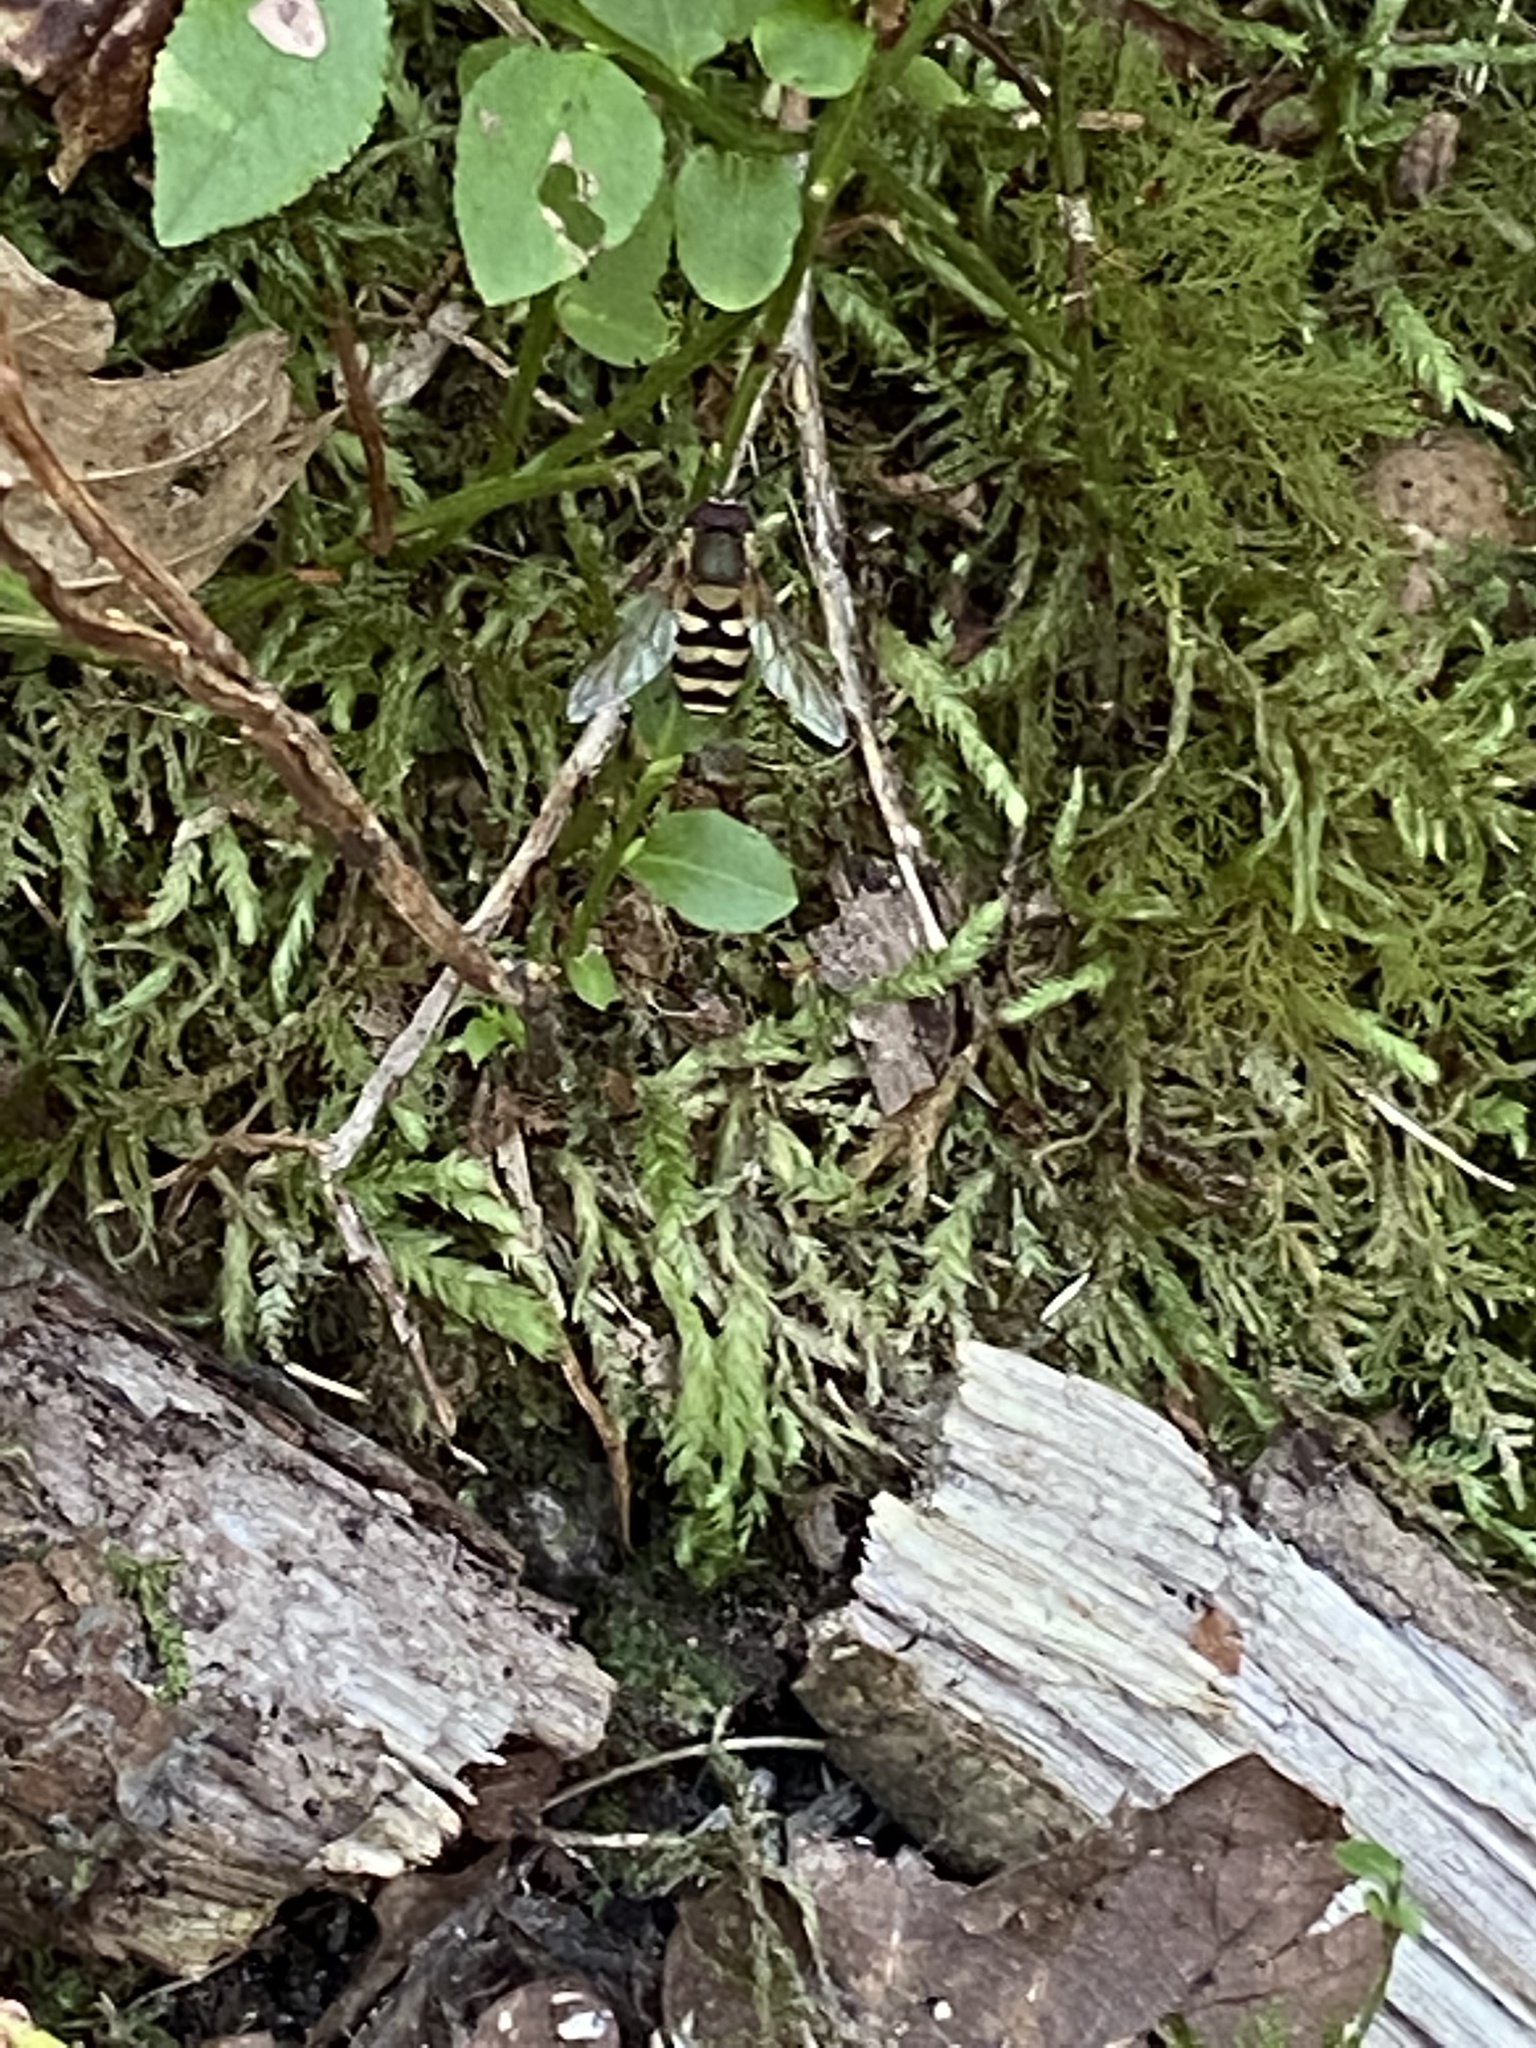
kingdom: Animalia
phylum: Arthropoda
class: Insecta
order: Diptera
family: Syrphidae
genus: Syrphus
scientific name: Syrphus
